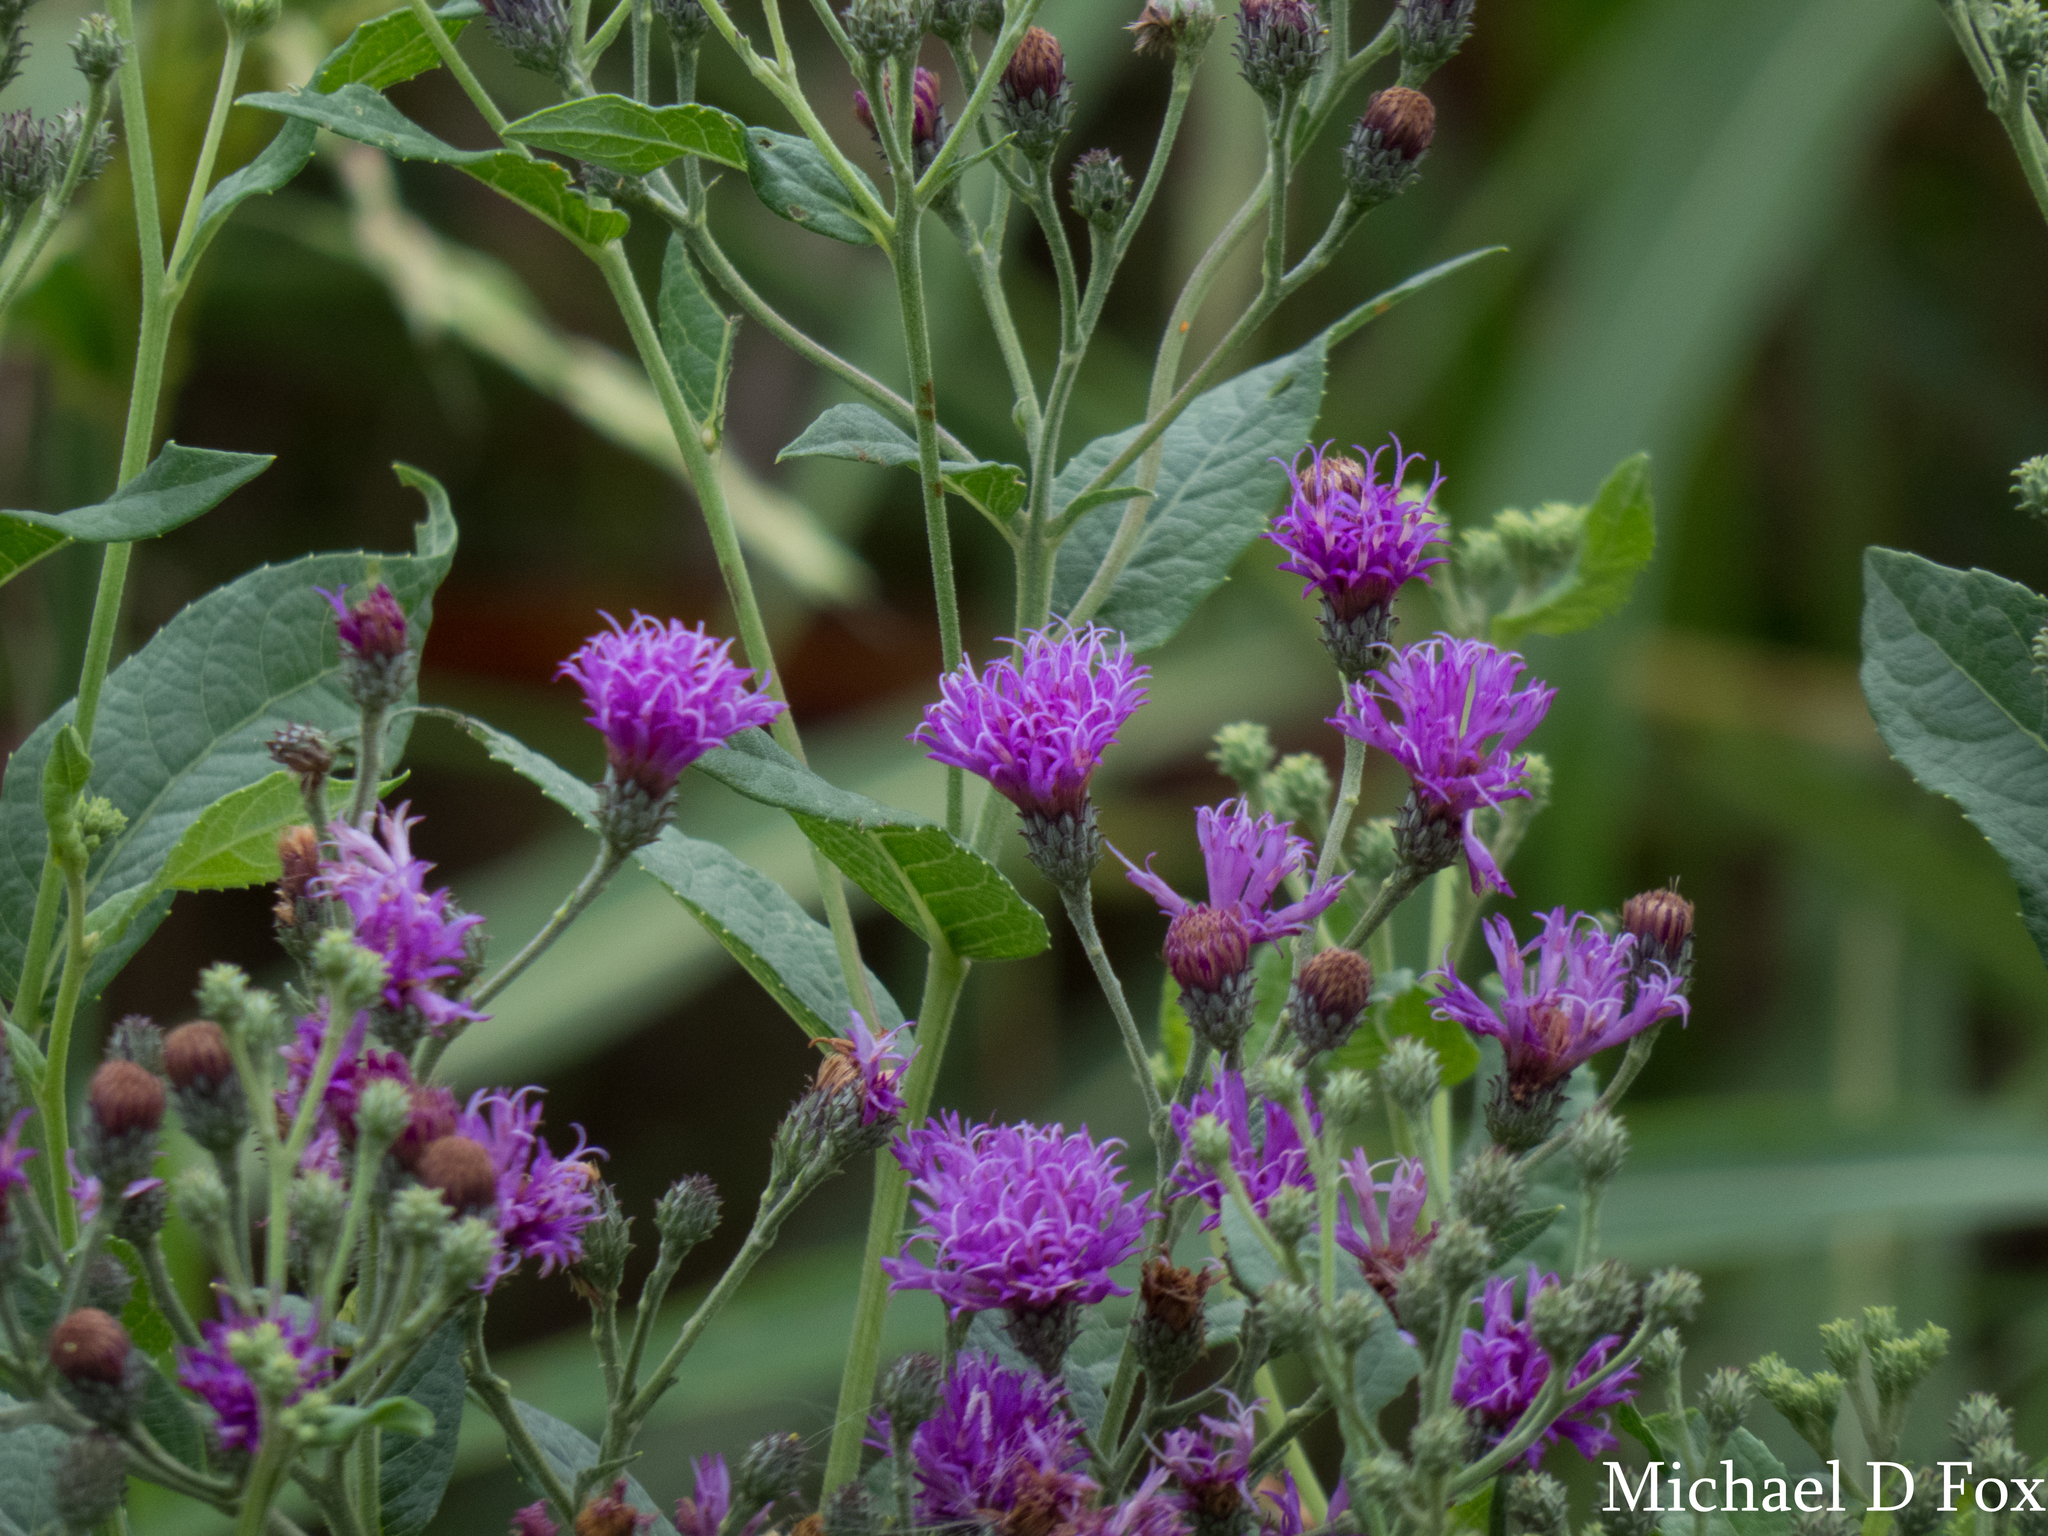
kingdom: Plantae
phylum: Tracheophyta
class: Magnoliopsida
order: Asterales
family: Asteraceae
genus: Vernonia
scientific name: Vernonia baldwinii
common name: Western ironweed
